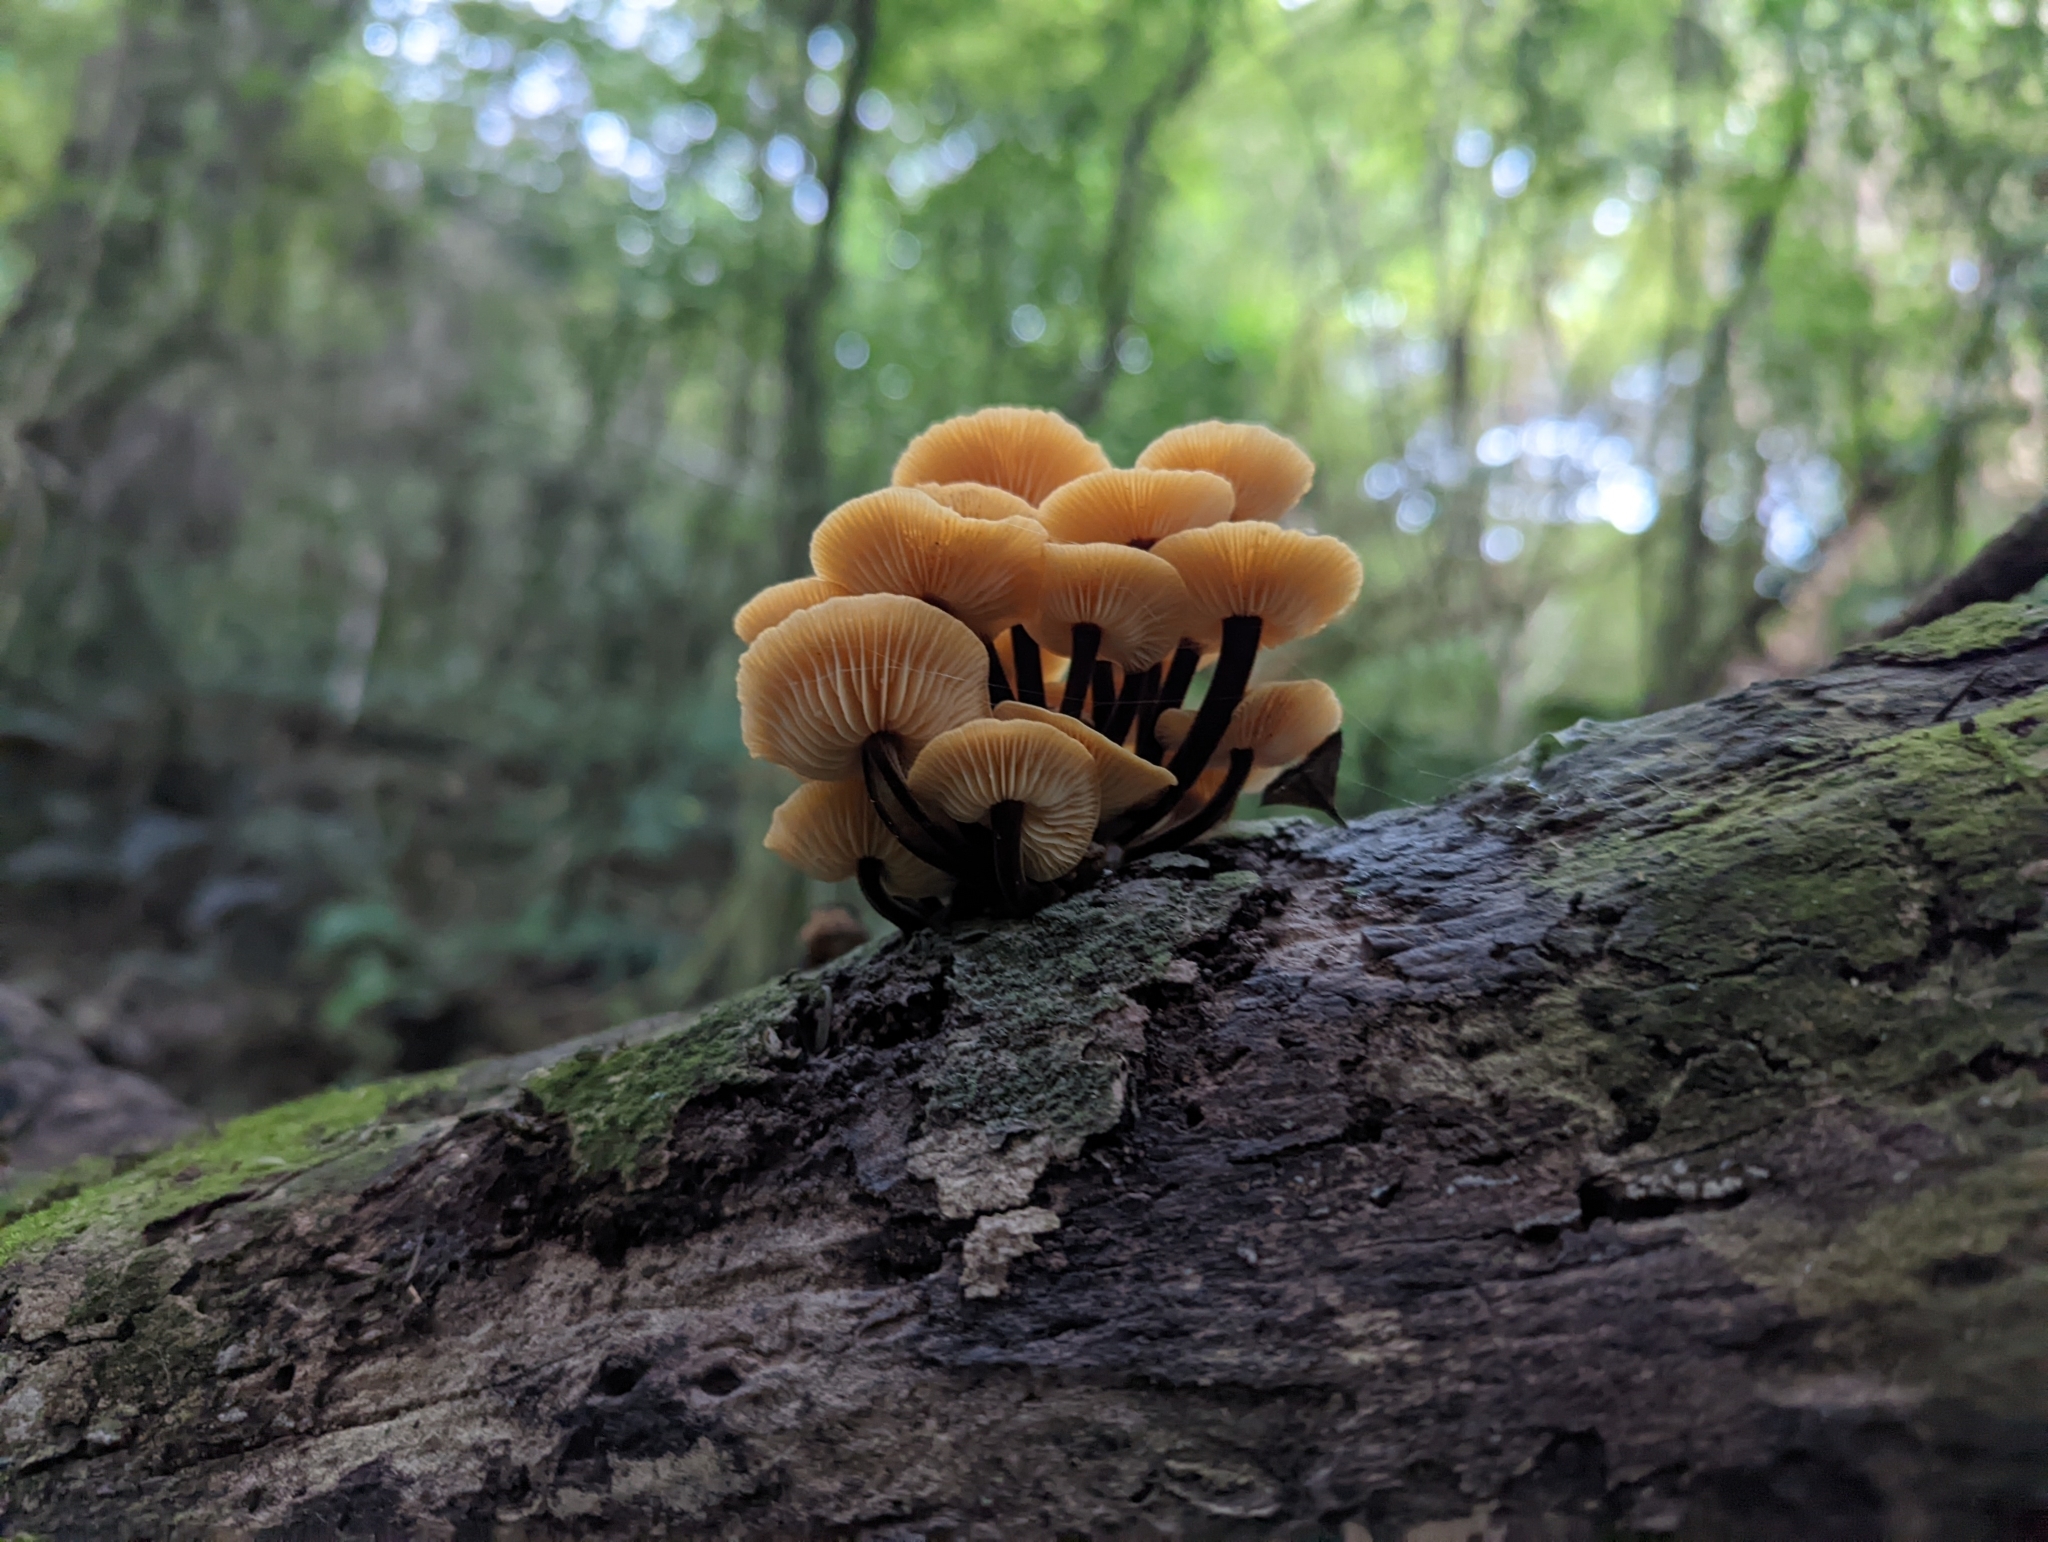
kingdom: Fungi
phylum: Basidiomycota
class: Agaricomycetes
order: Agaricales
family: Physalacriaceae
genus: Flammulina
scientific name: Flammulina velutipes
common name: Velvet shank
